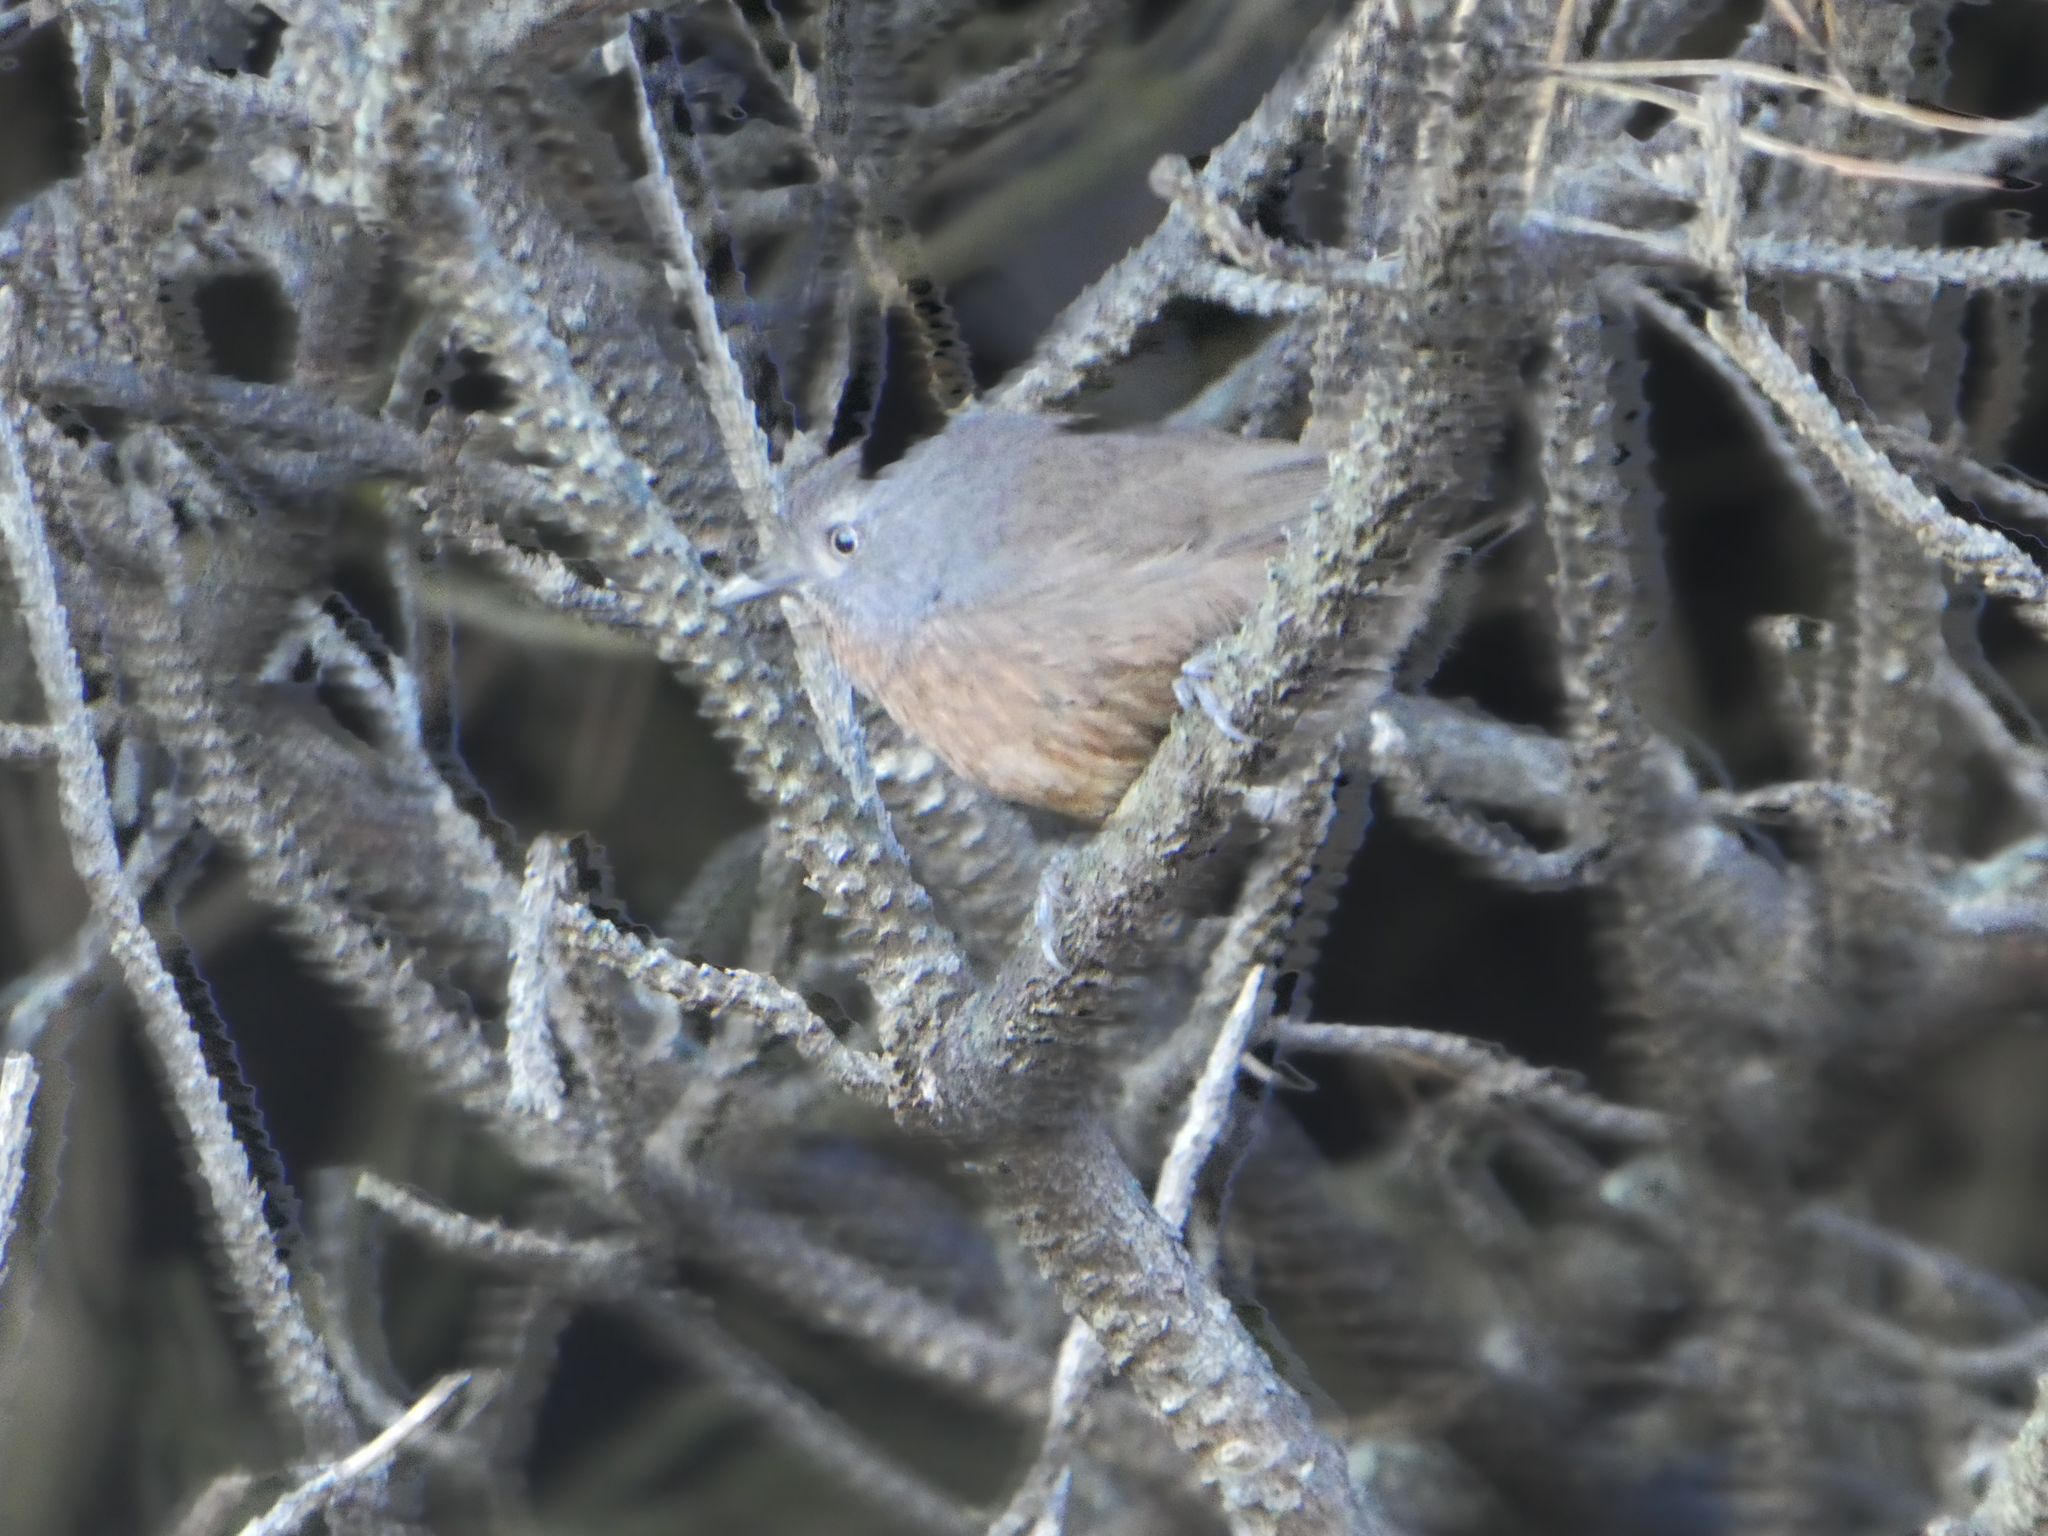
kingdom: Animalia
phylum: Chordata
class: Aves
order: Passeriformes
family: Sylviidae
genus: Chamaea
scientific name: Chamaea fasciata
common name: Wrentit
